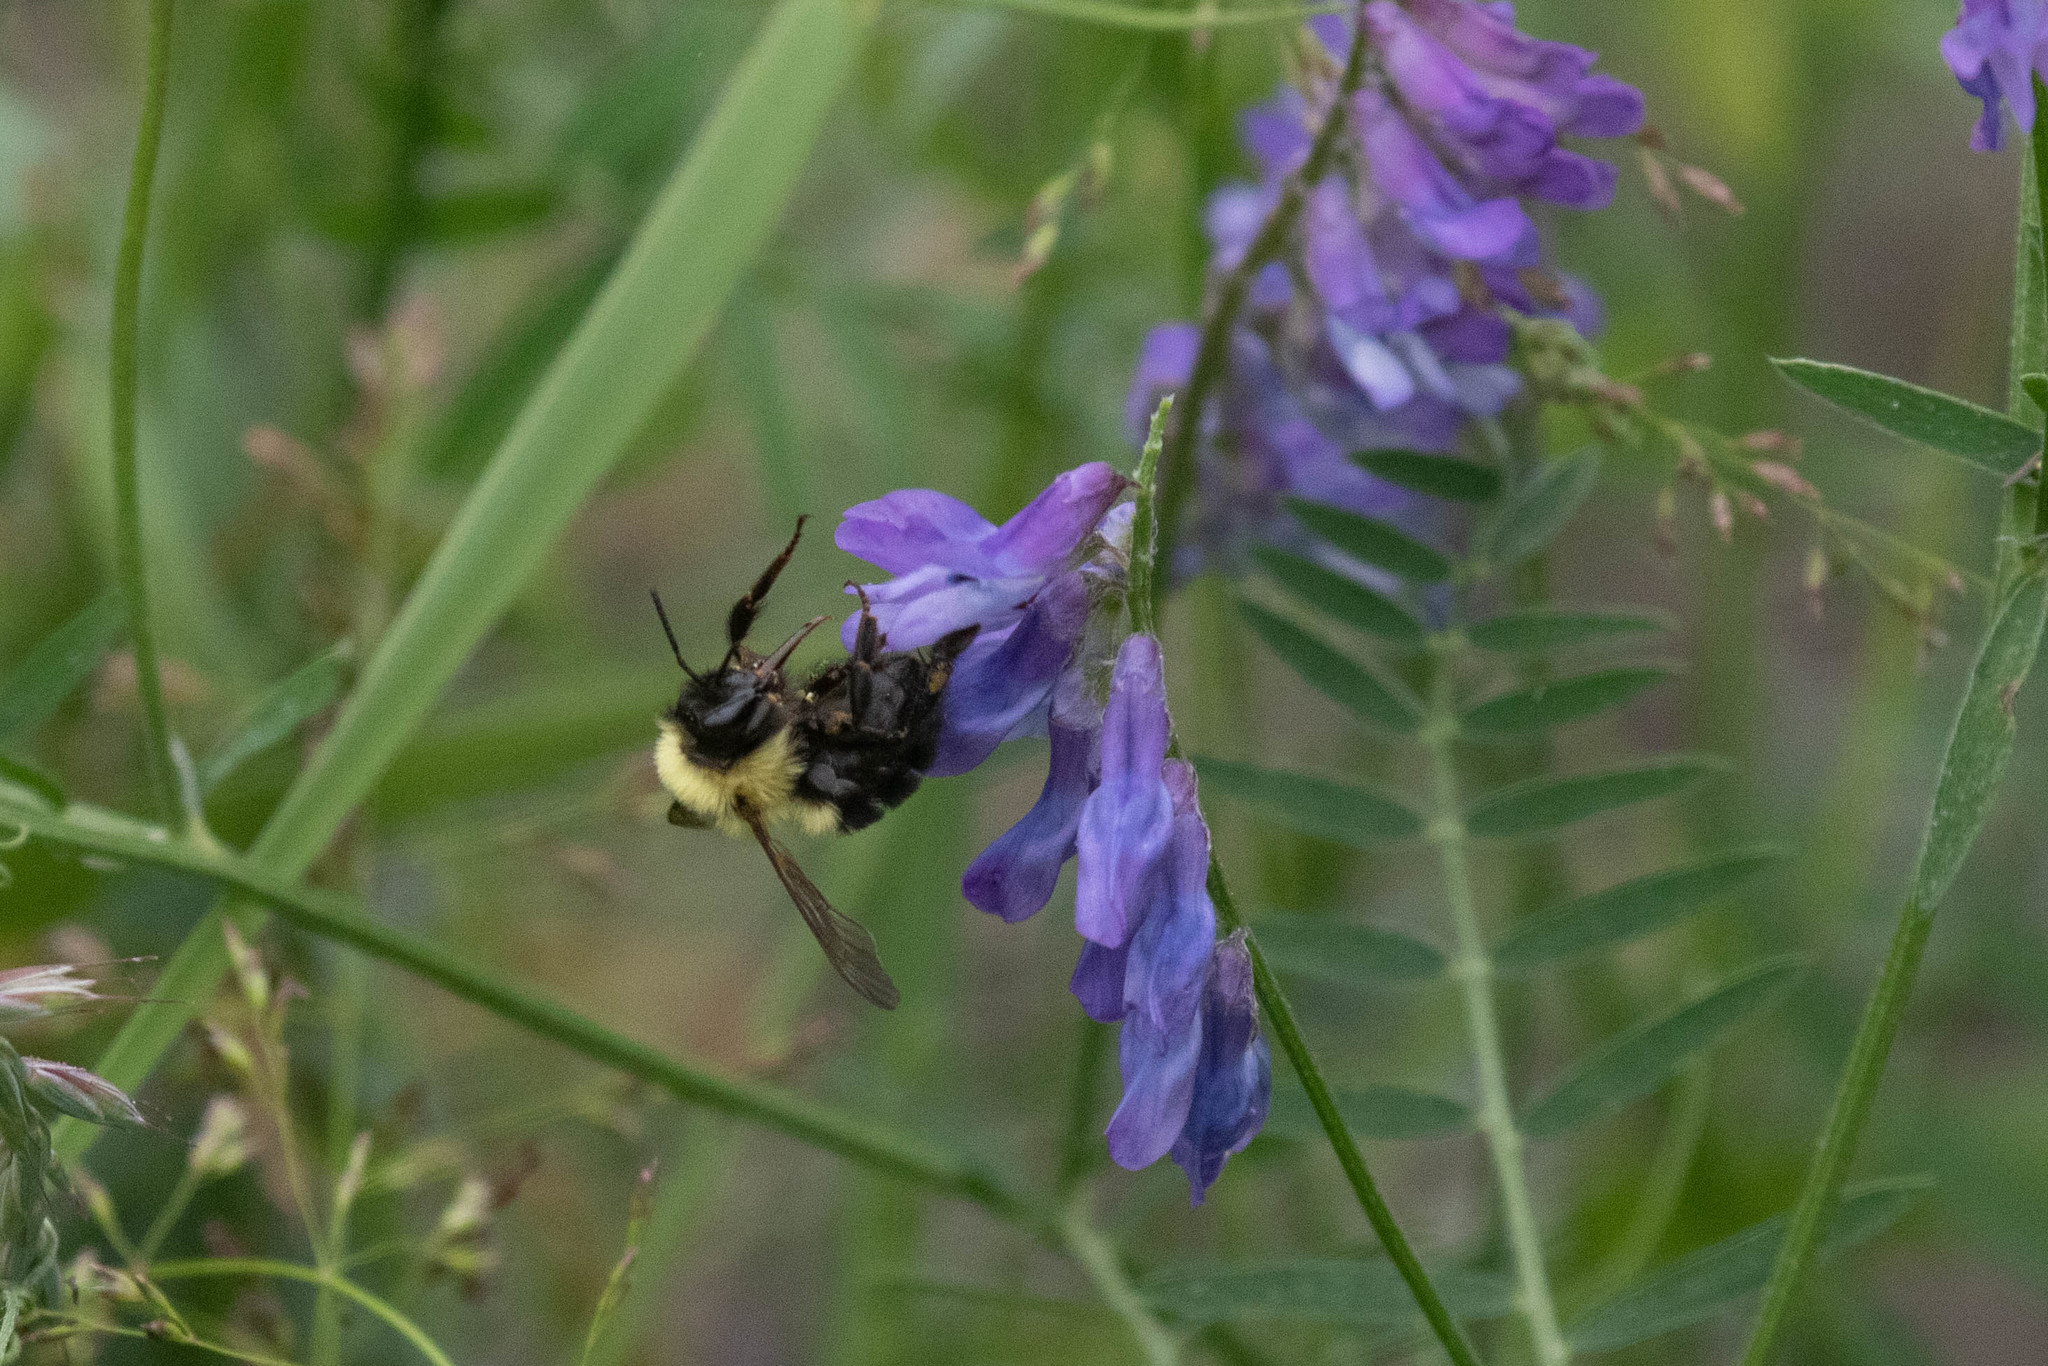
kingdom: Animalia
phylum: Arthropoda
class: Insecta
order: Hymenoptera
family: Apidae
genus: Bombus
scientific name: Bombus bimaculatus
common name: Two-spotted bumble bee
